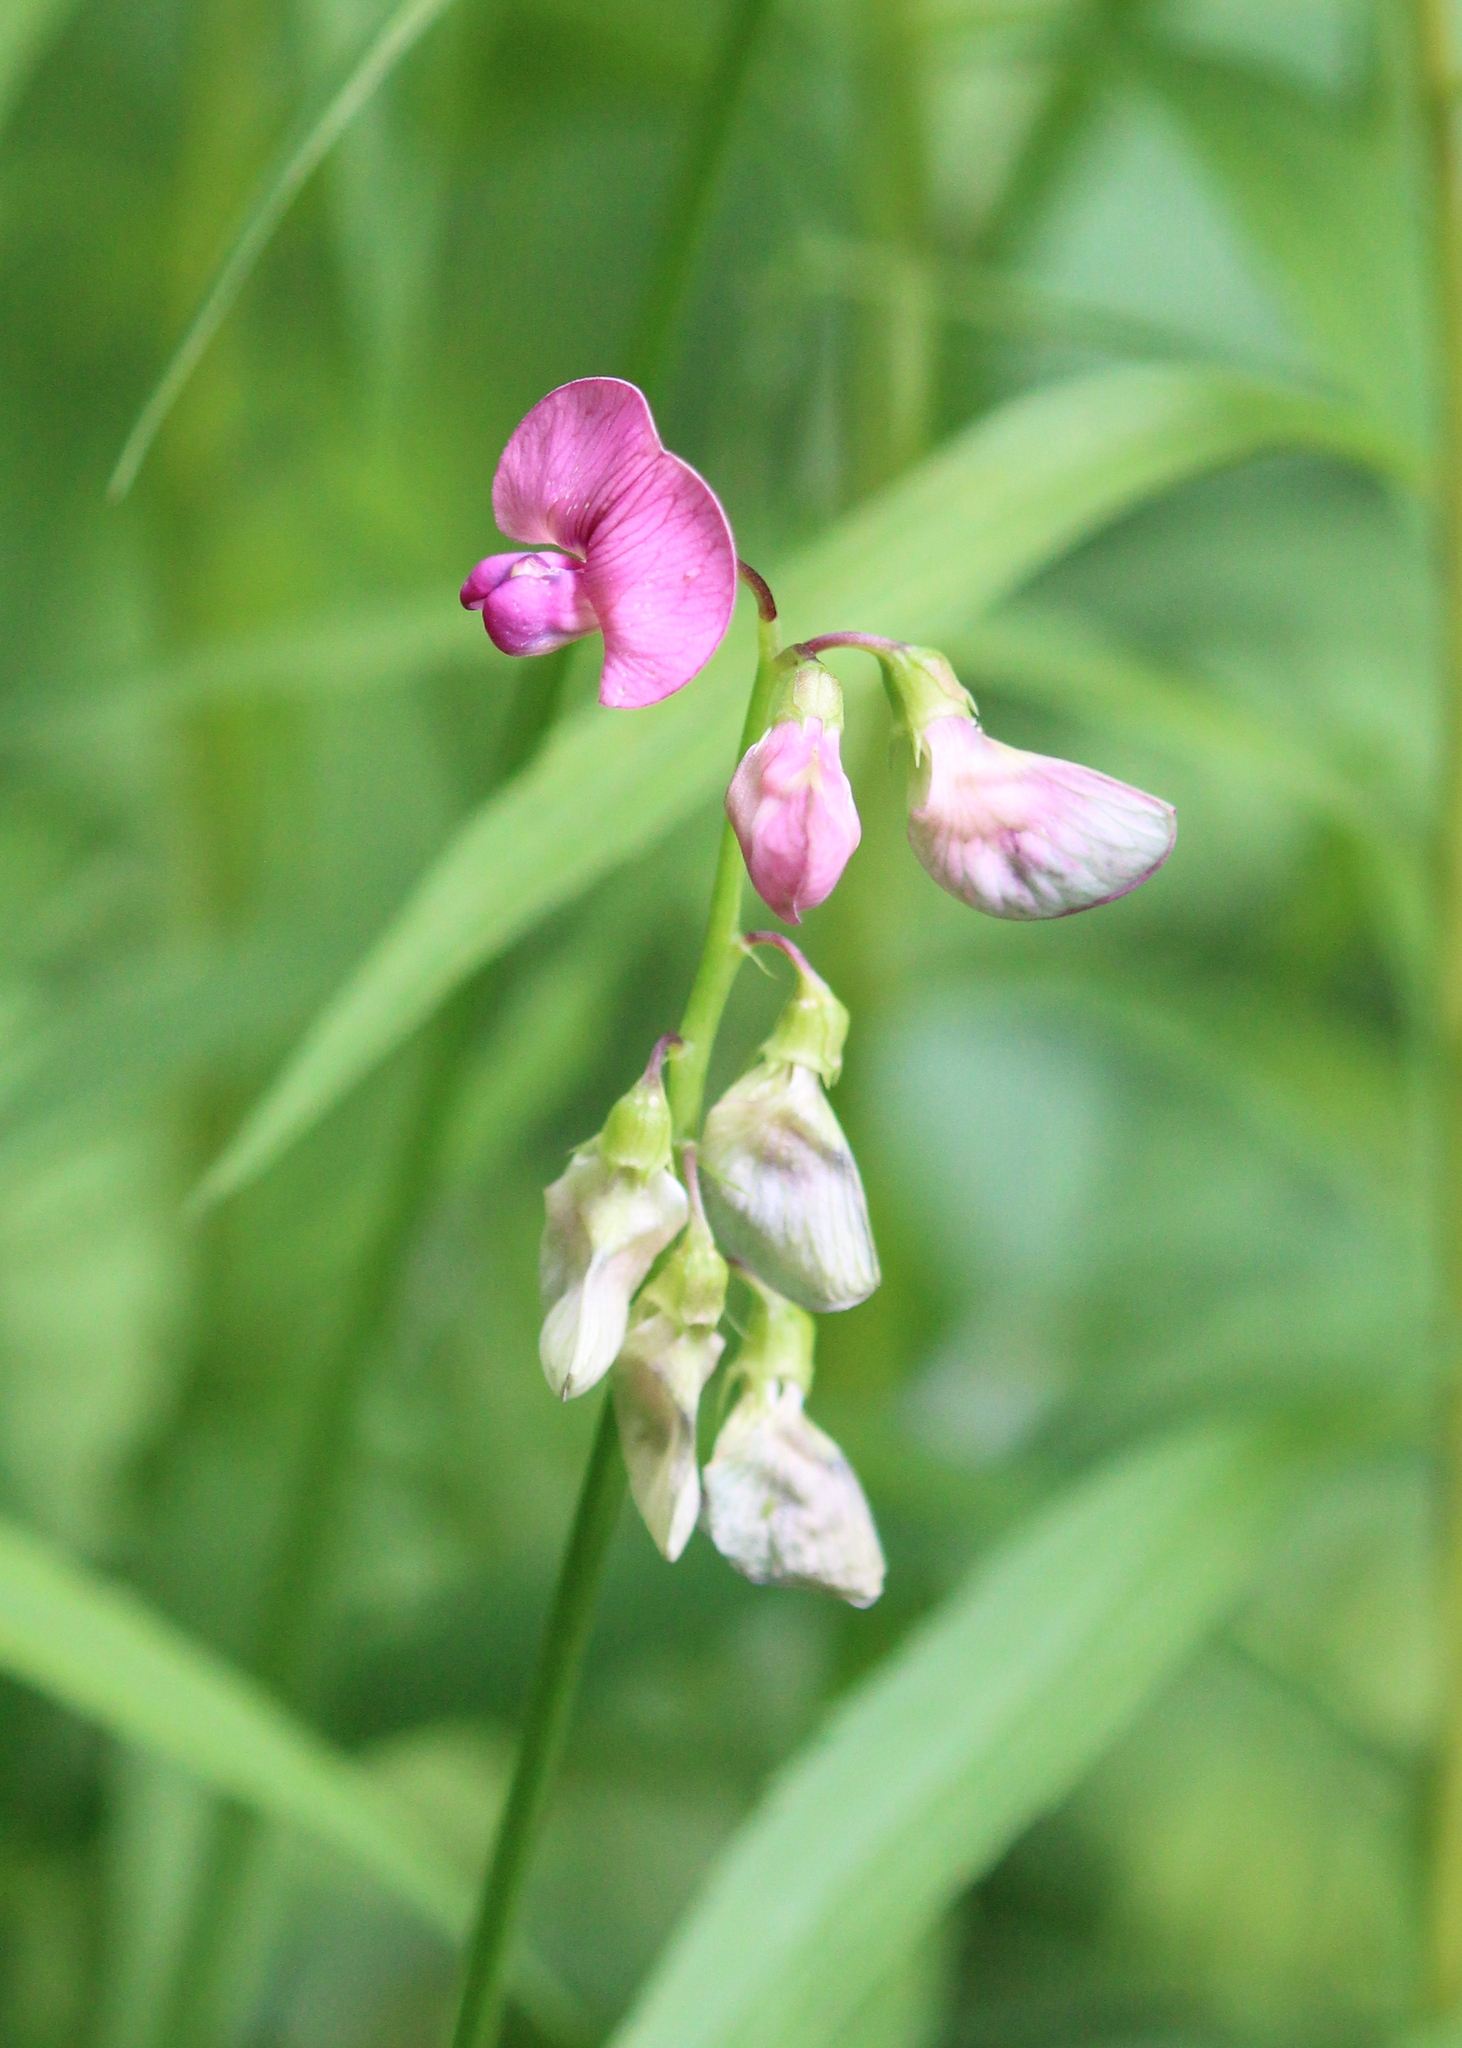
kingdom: Plantae
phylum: Tracheophyta
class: Magnoliopsida
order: Fabales
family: Fabaceae
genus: Lathyrus
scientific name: Lathyrus sylvestris
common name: Flat pea
